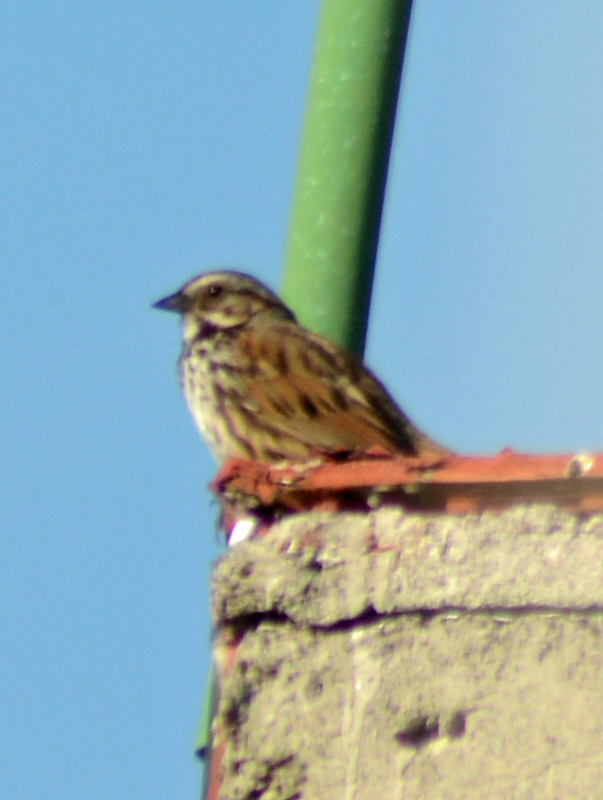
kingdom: Animalia
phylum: Chordata
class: Aves
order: Passeriformes
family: Passerellidae
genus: Melospiza
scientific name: Melospiza melodia
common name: Song sparrow
